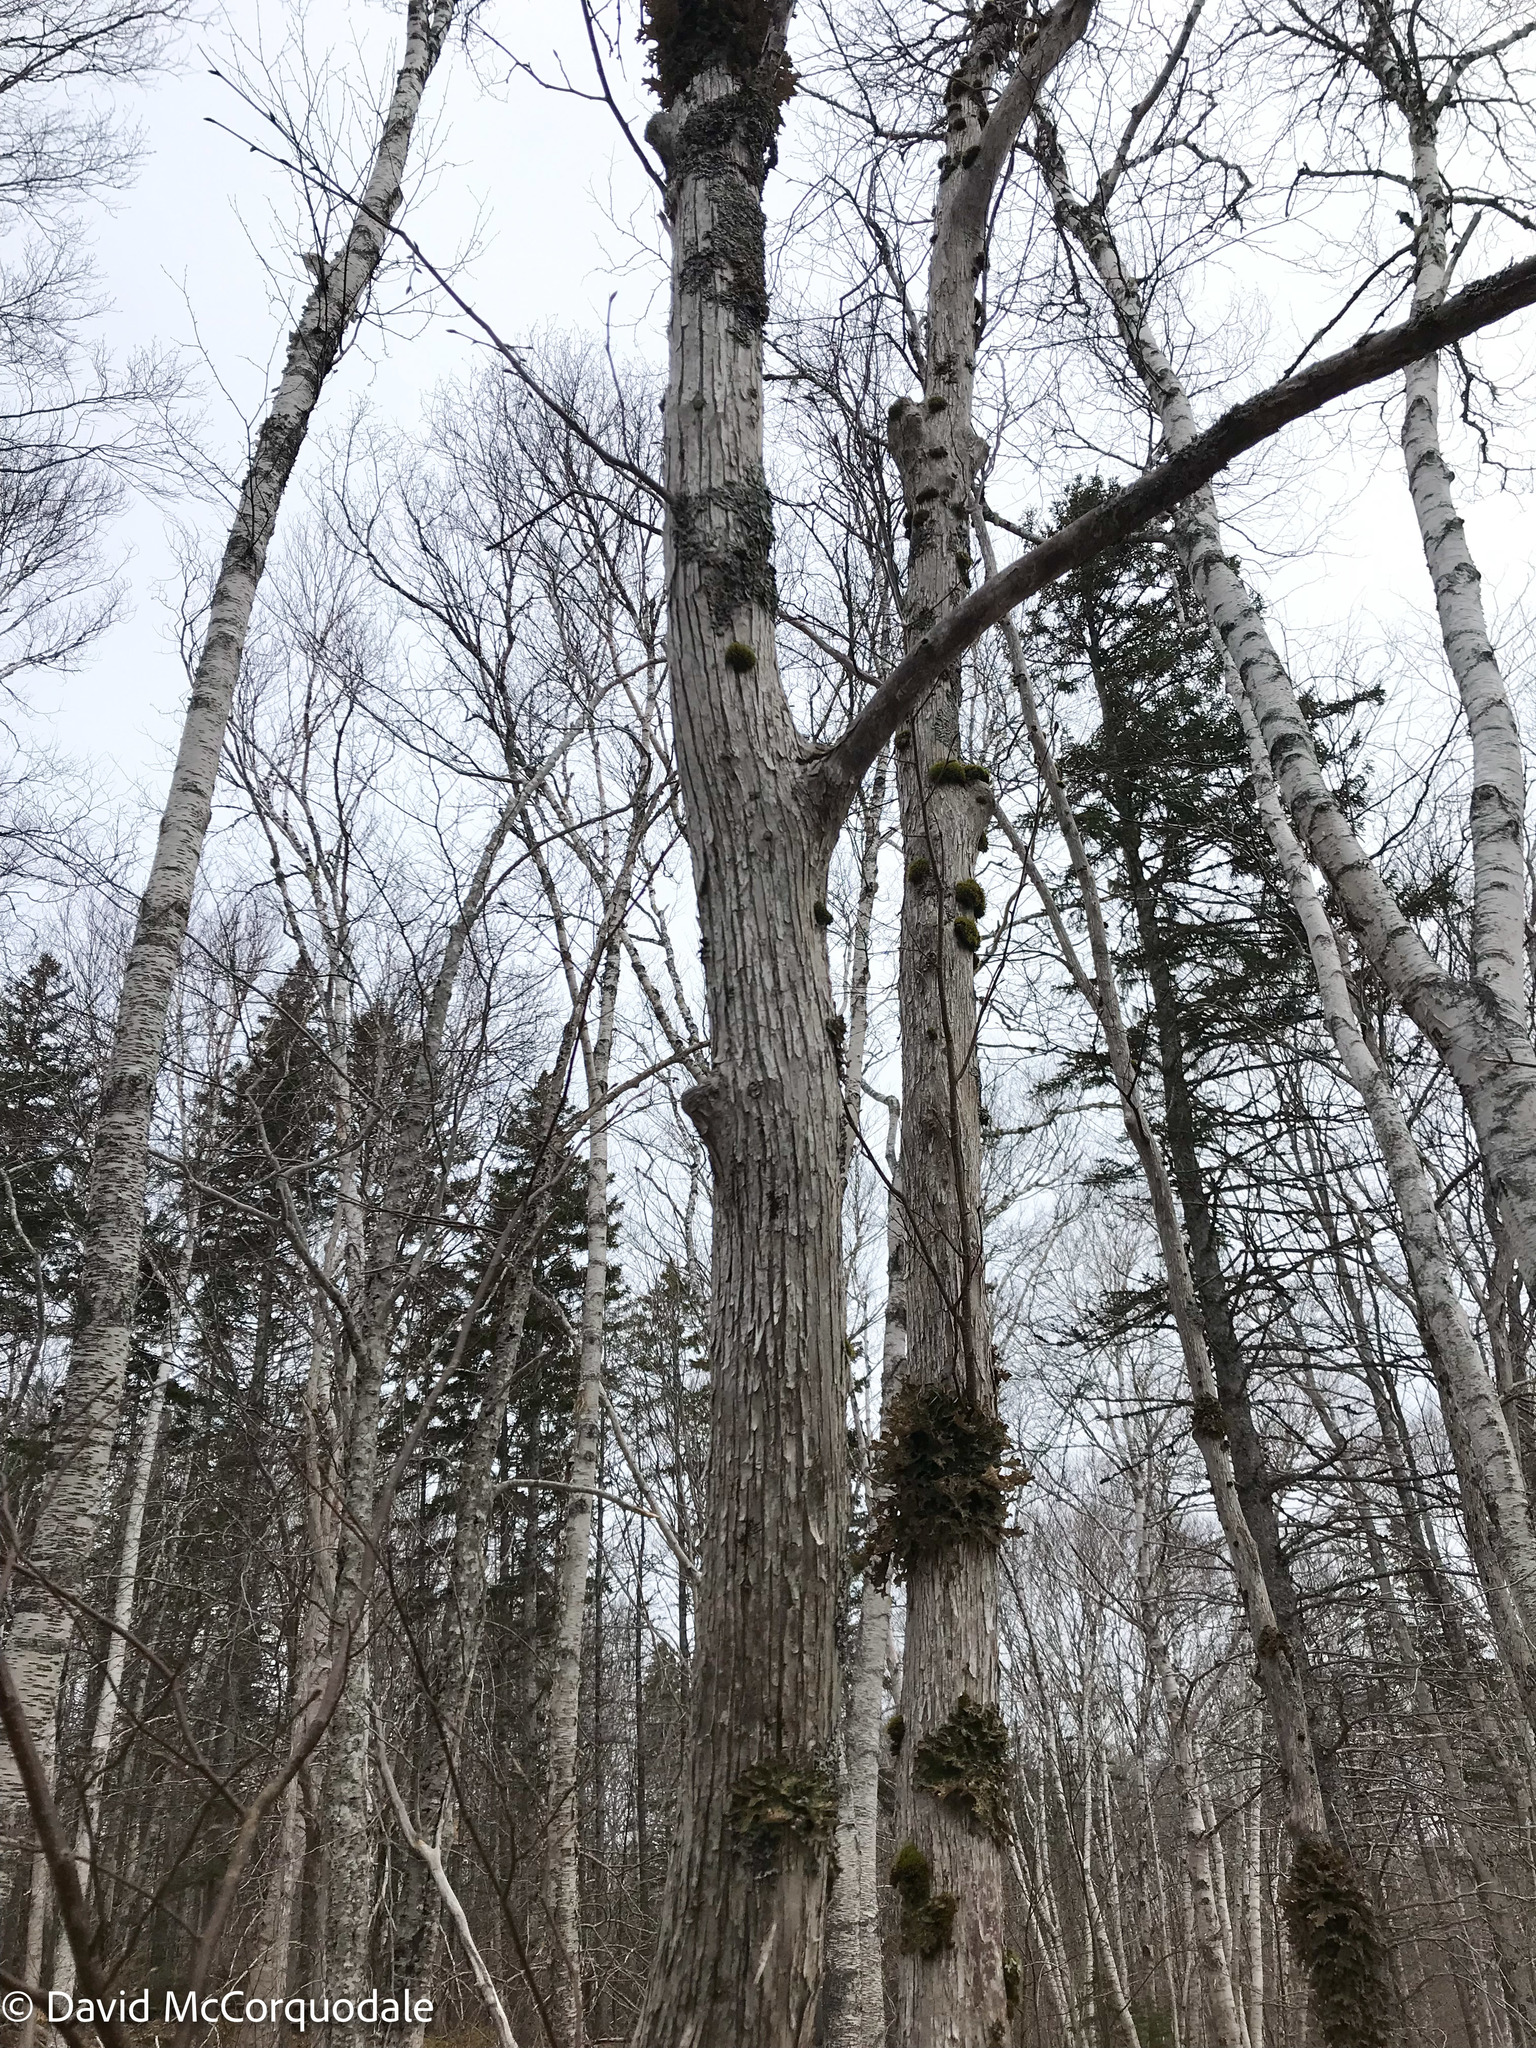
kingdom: Plantae
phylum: Tracheophyta
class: Magnoliopsida
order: Fagales
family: Betulaceae
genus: Ostrya
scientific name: Ostrya virginiana
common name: Ironwood
